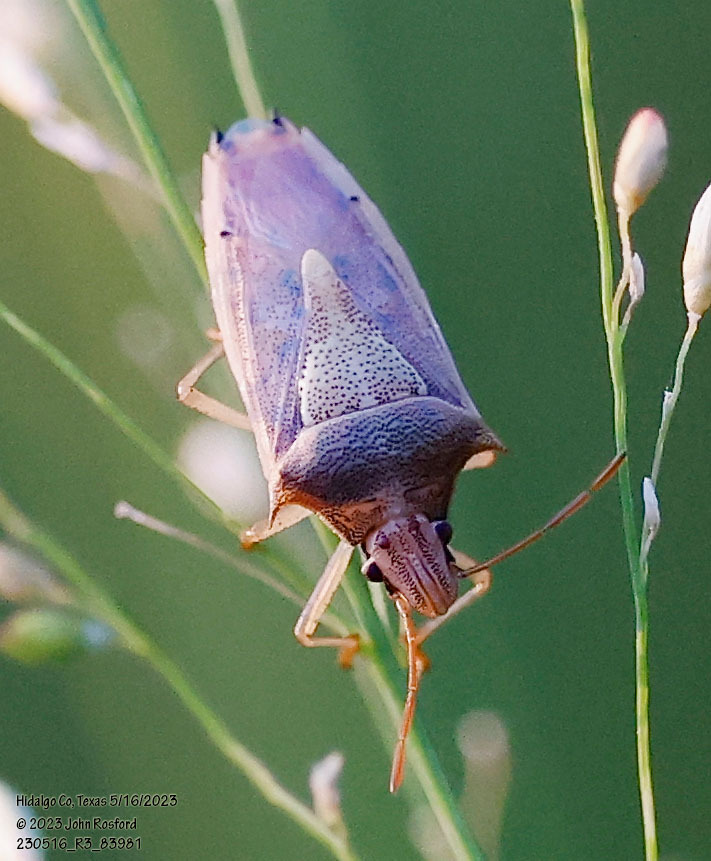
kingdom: Animalia
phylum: Arthropoda
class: Insecta
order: Hemiptera
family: Pentatomidae
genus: Oebalus
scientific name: Oebalus pugnax
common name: Rice stink bug
